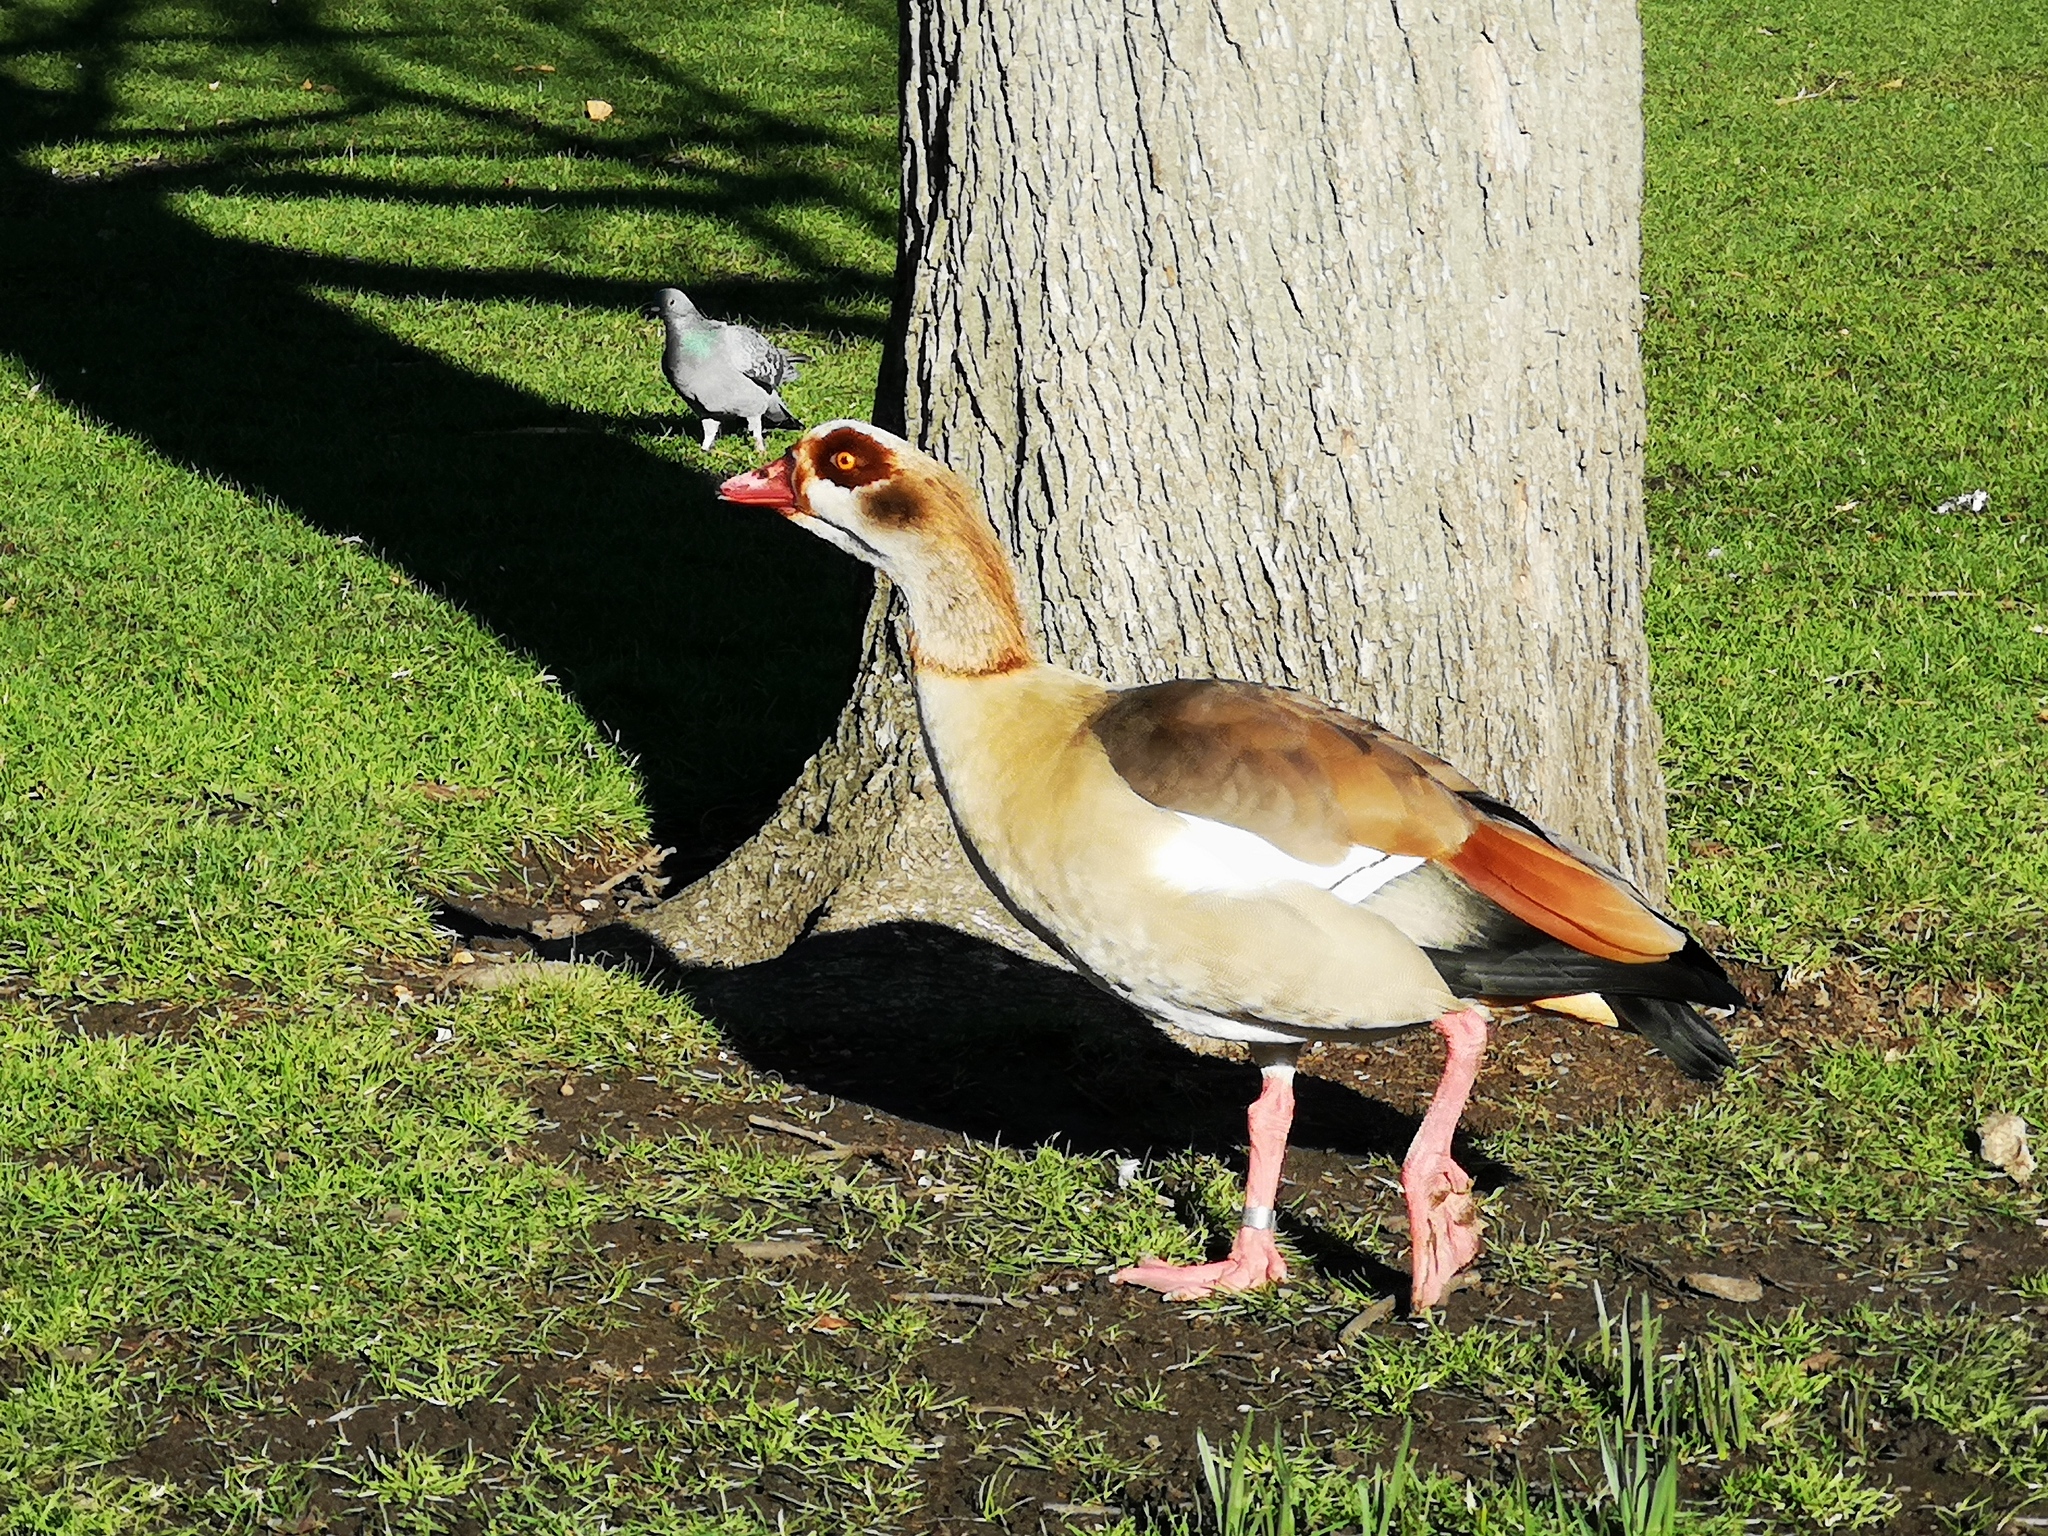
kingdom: Animalia
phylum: Chordata
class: Aves
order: Anseriformes
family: Anatidae
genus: Alopochen
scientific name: Alopochen aegyptiaca
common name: Egyptian goose
